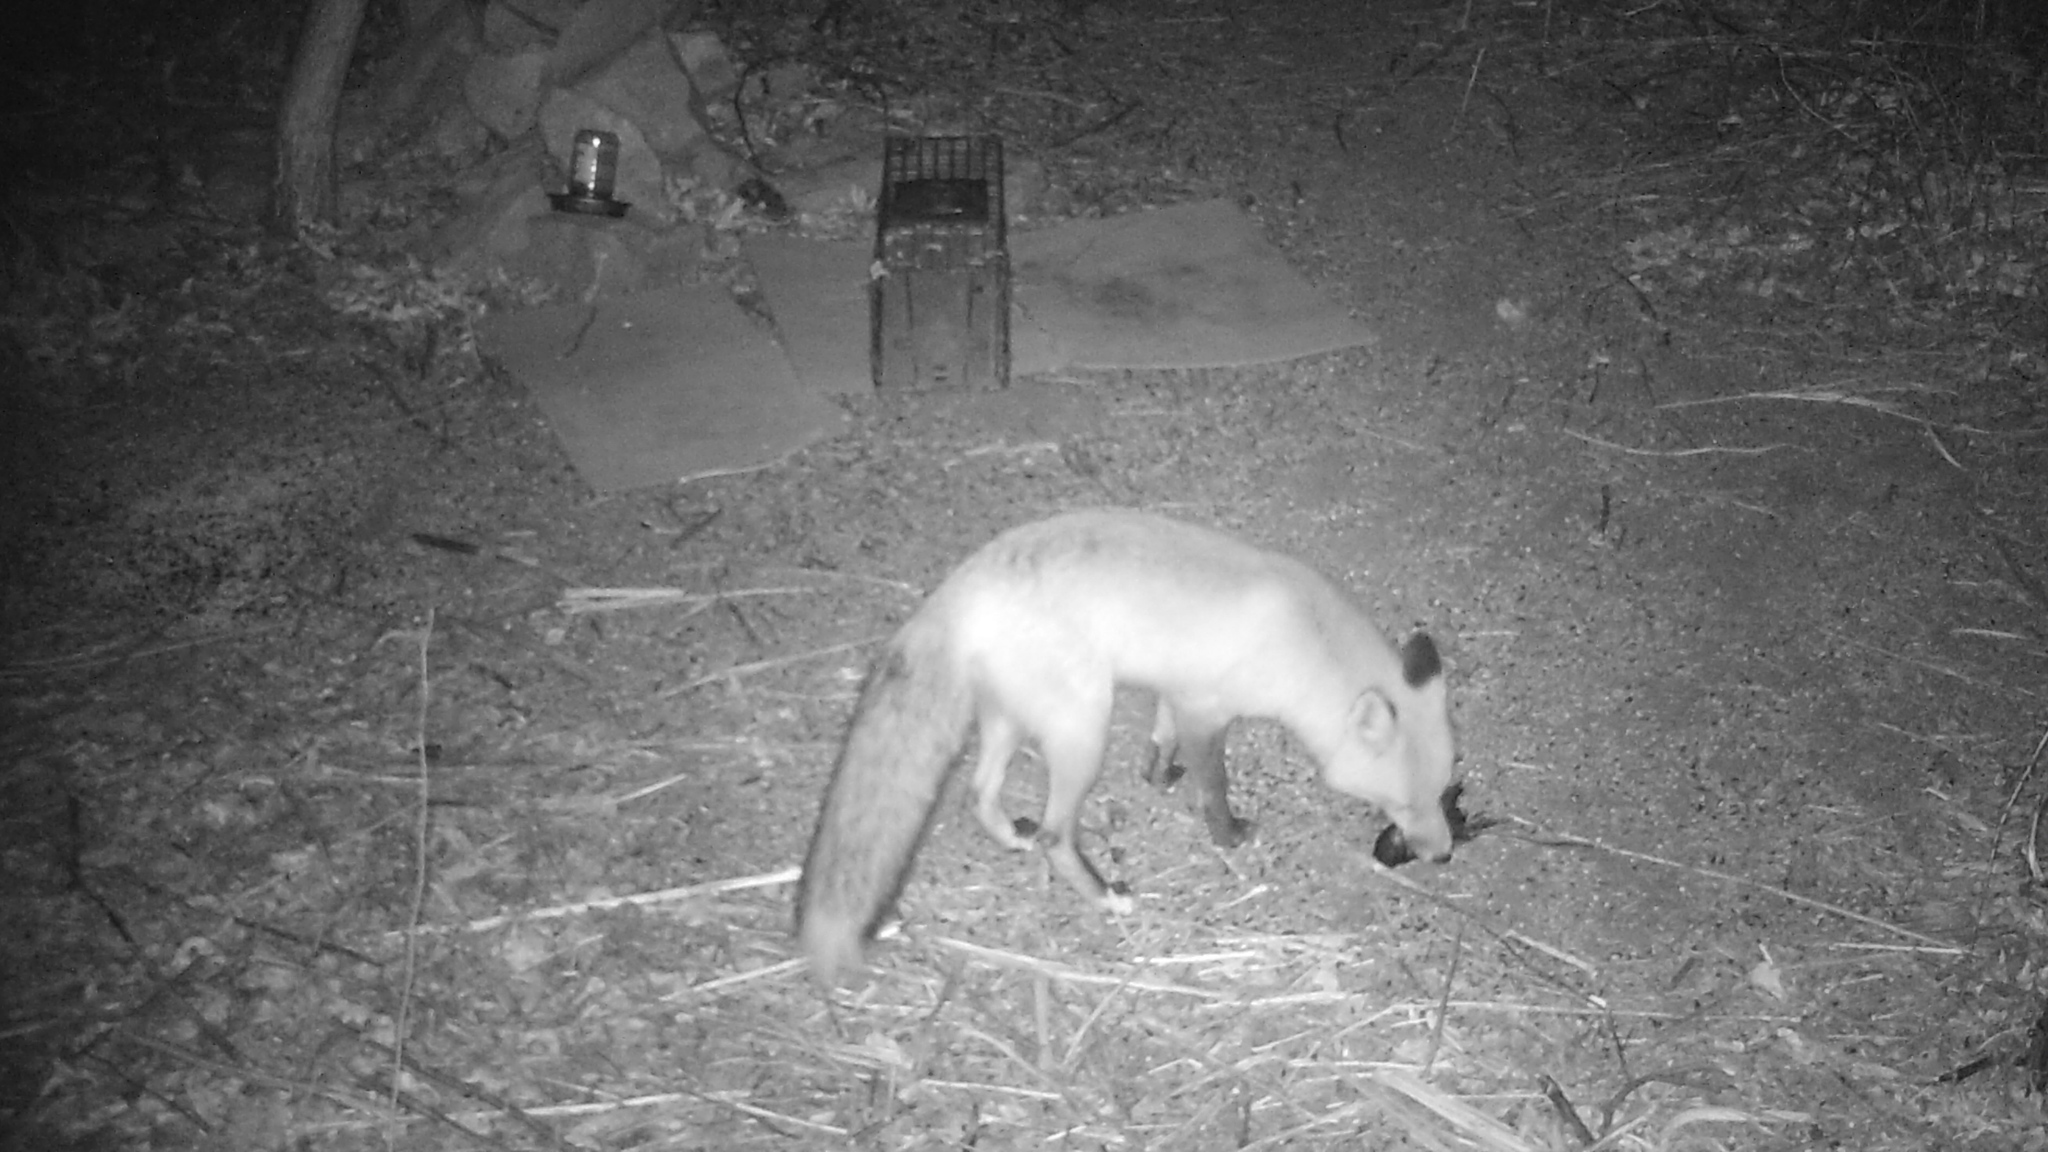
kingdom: Animalia
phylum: Chordata
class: Mammalia
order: Carnivora
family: Canidae
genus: Vulpes
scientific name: Vulpes vulpes
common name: Red fox
